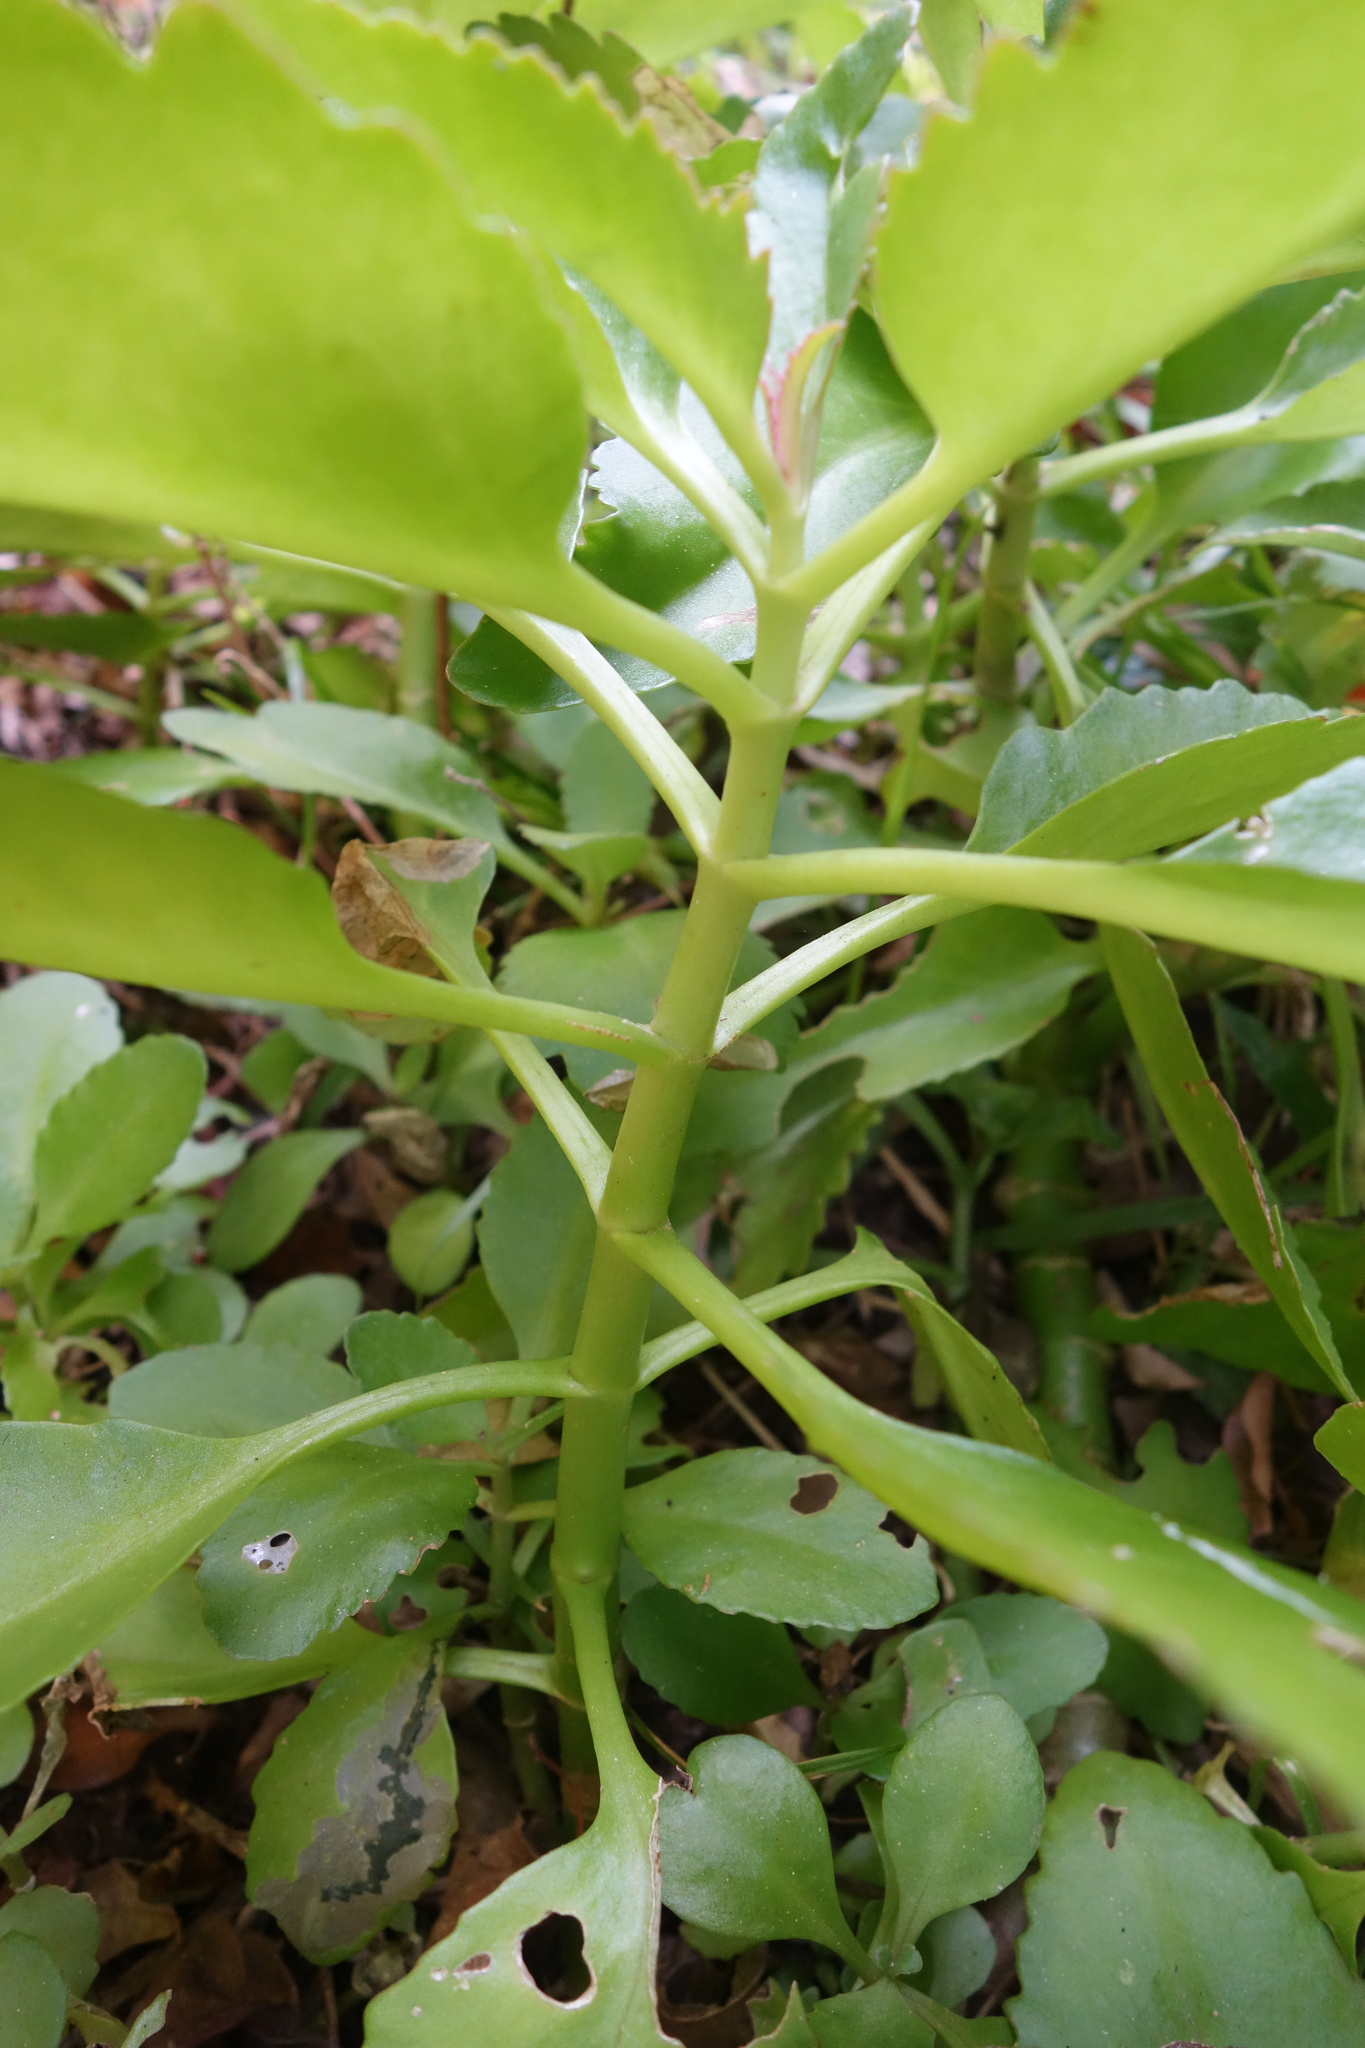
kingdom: Plantae
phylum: Tracheophyta
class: Magnoliopsida
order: Saxifragales
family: Crassulaceae
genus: Kalanchoe
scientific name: Kalanchoe pinnata
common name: Cathedral bells
